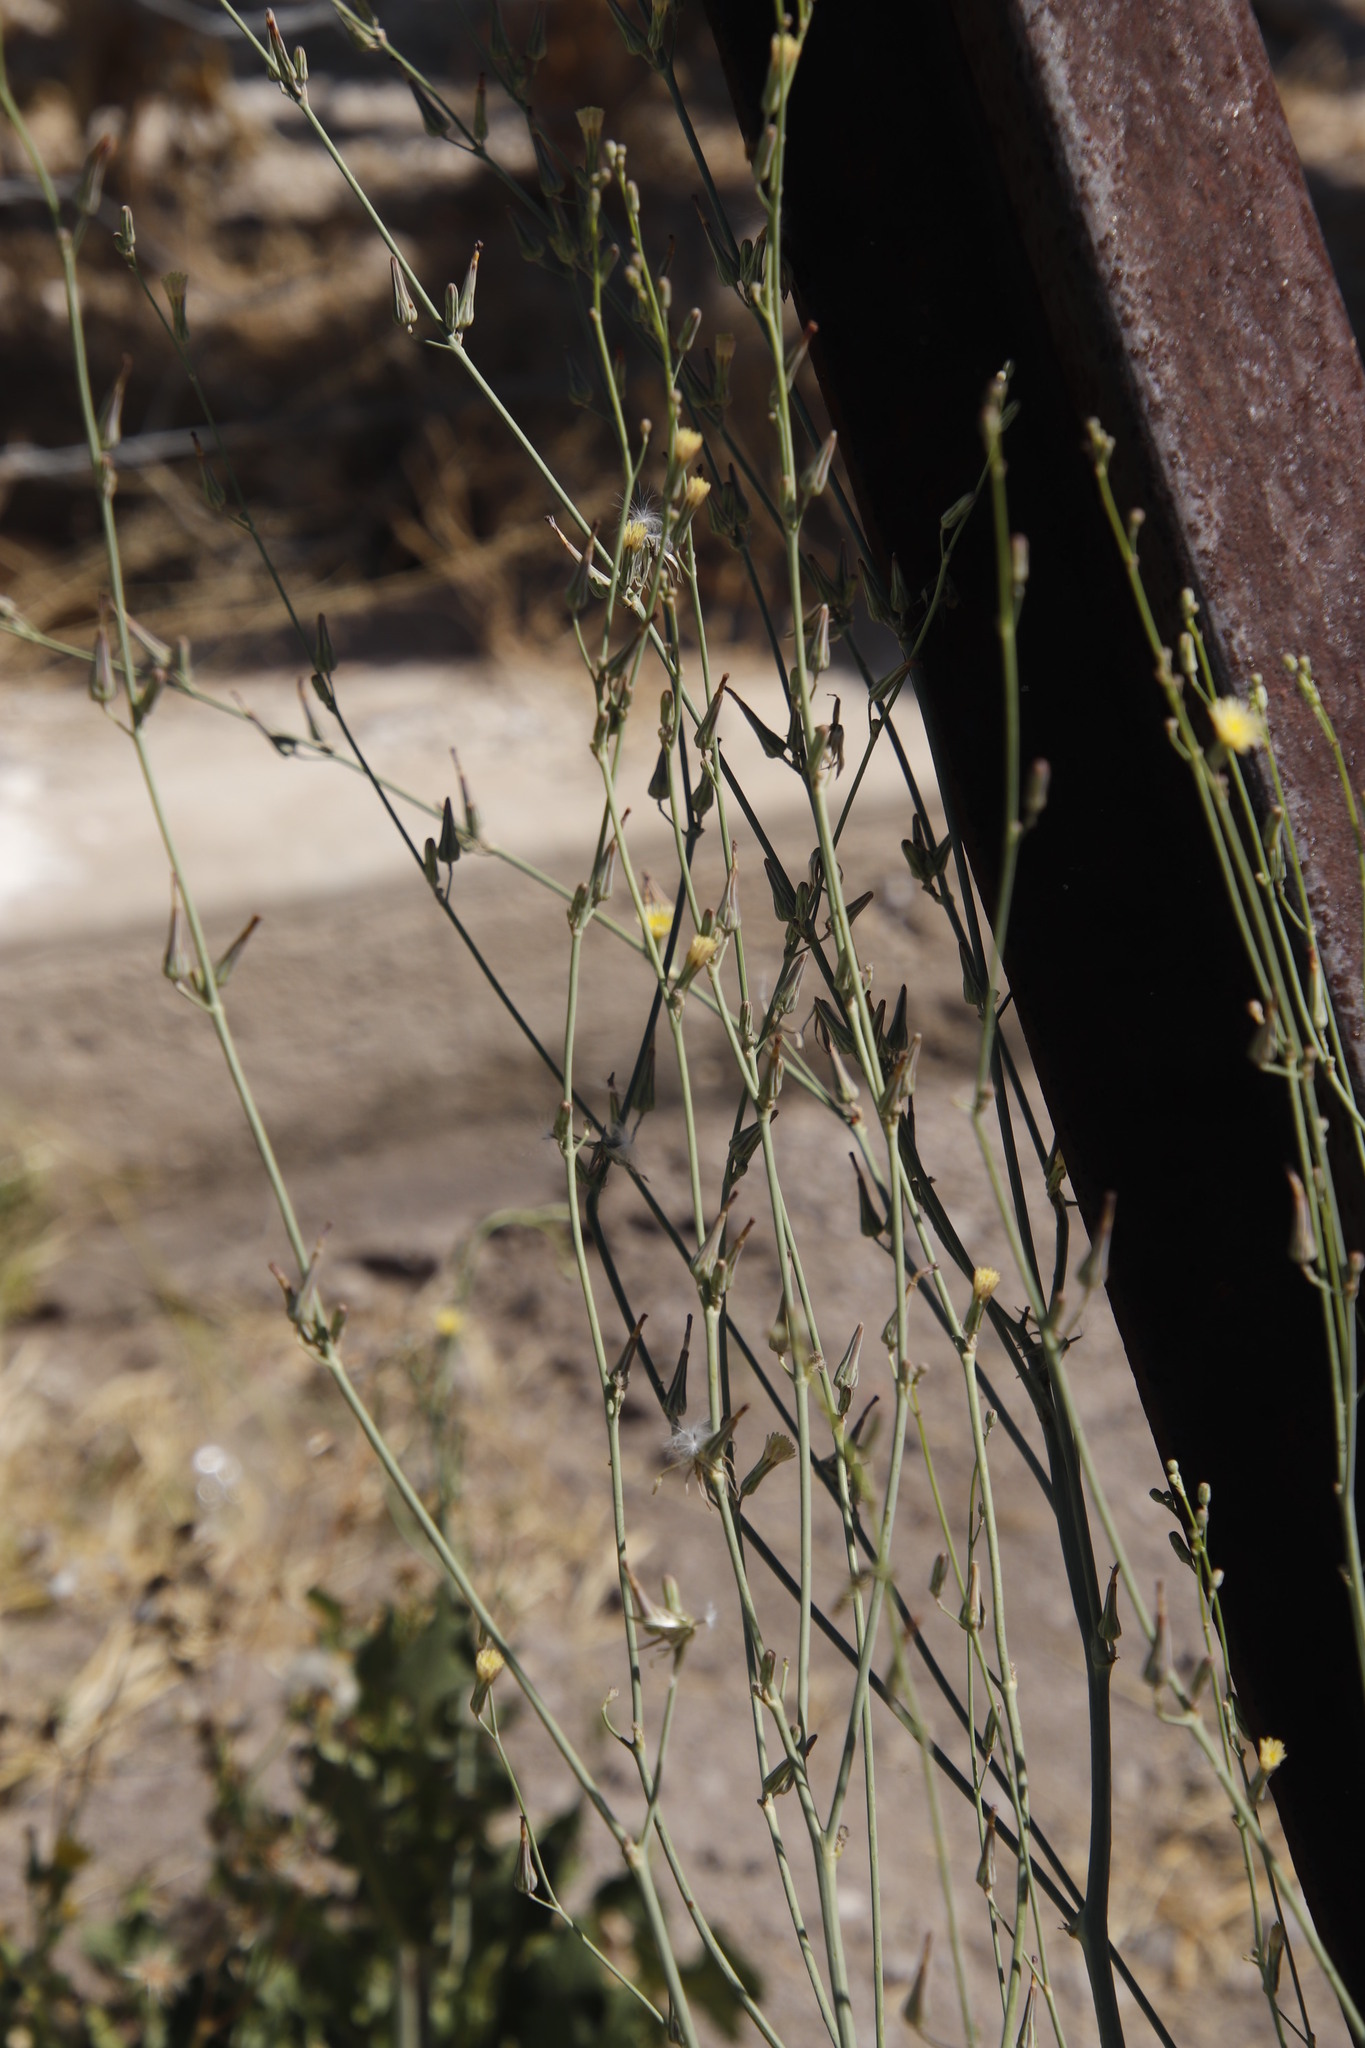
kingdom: Plantae
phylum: Tracheophyta
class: Magnoliopsida
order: Asterales
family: Asteraceae
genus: Launaea
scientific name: Launaea intybacea
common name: Achicoria azul
